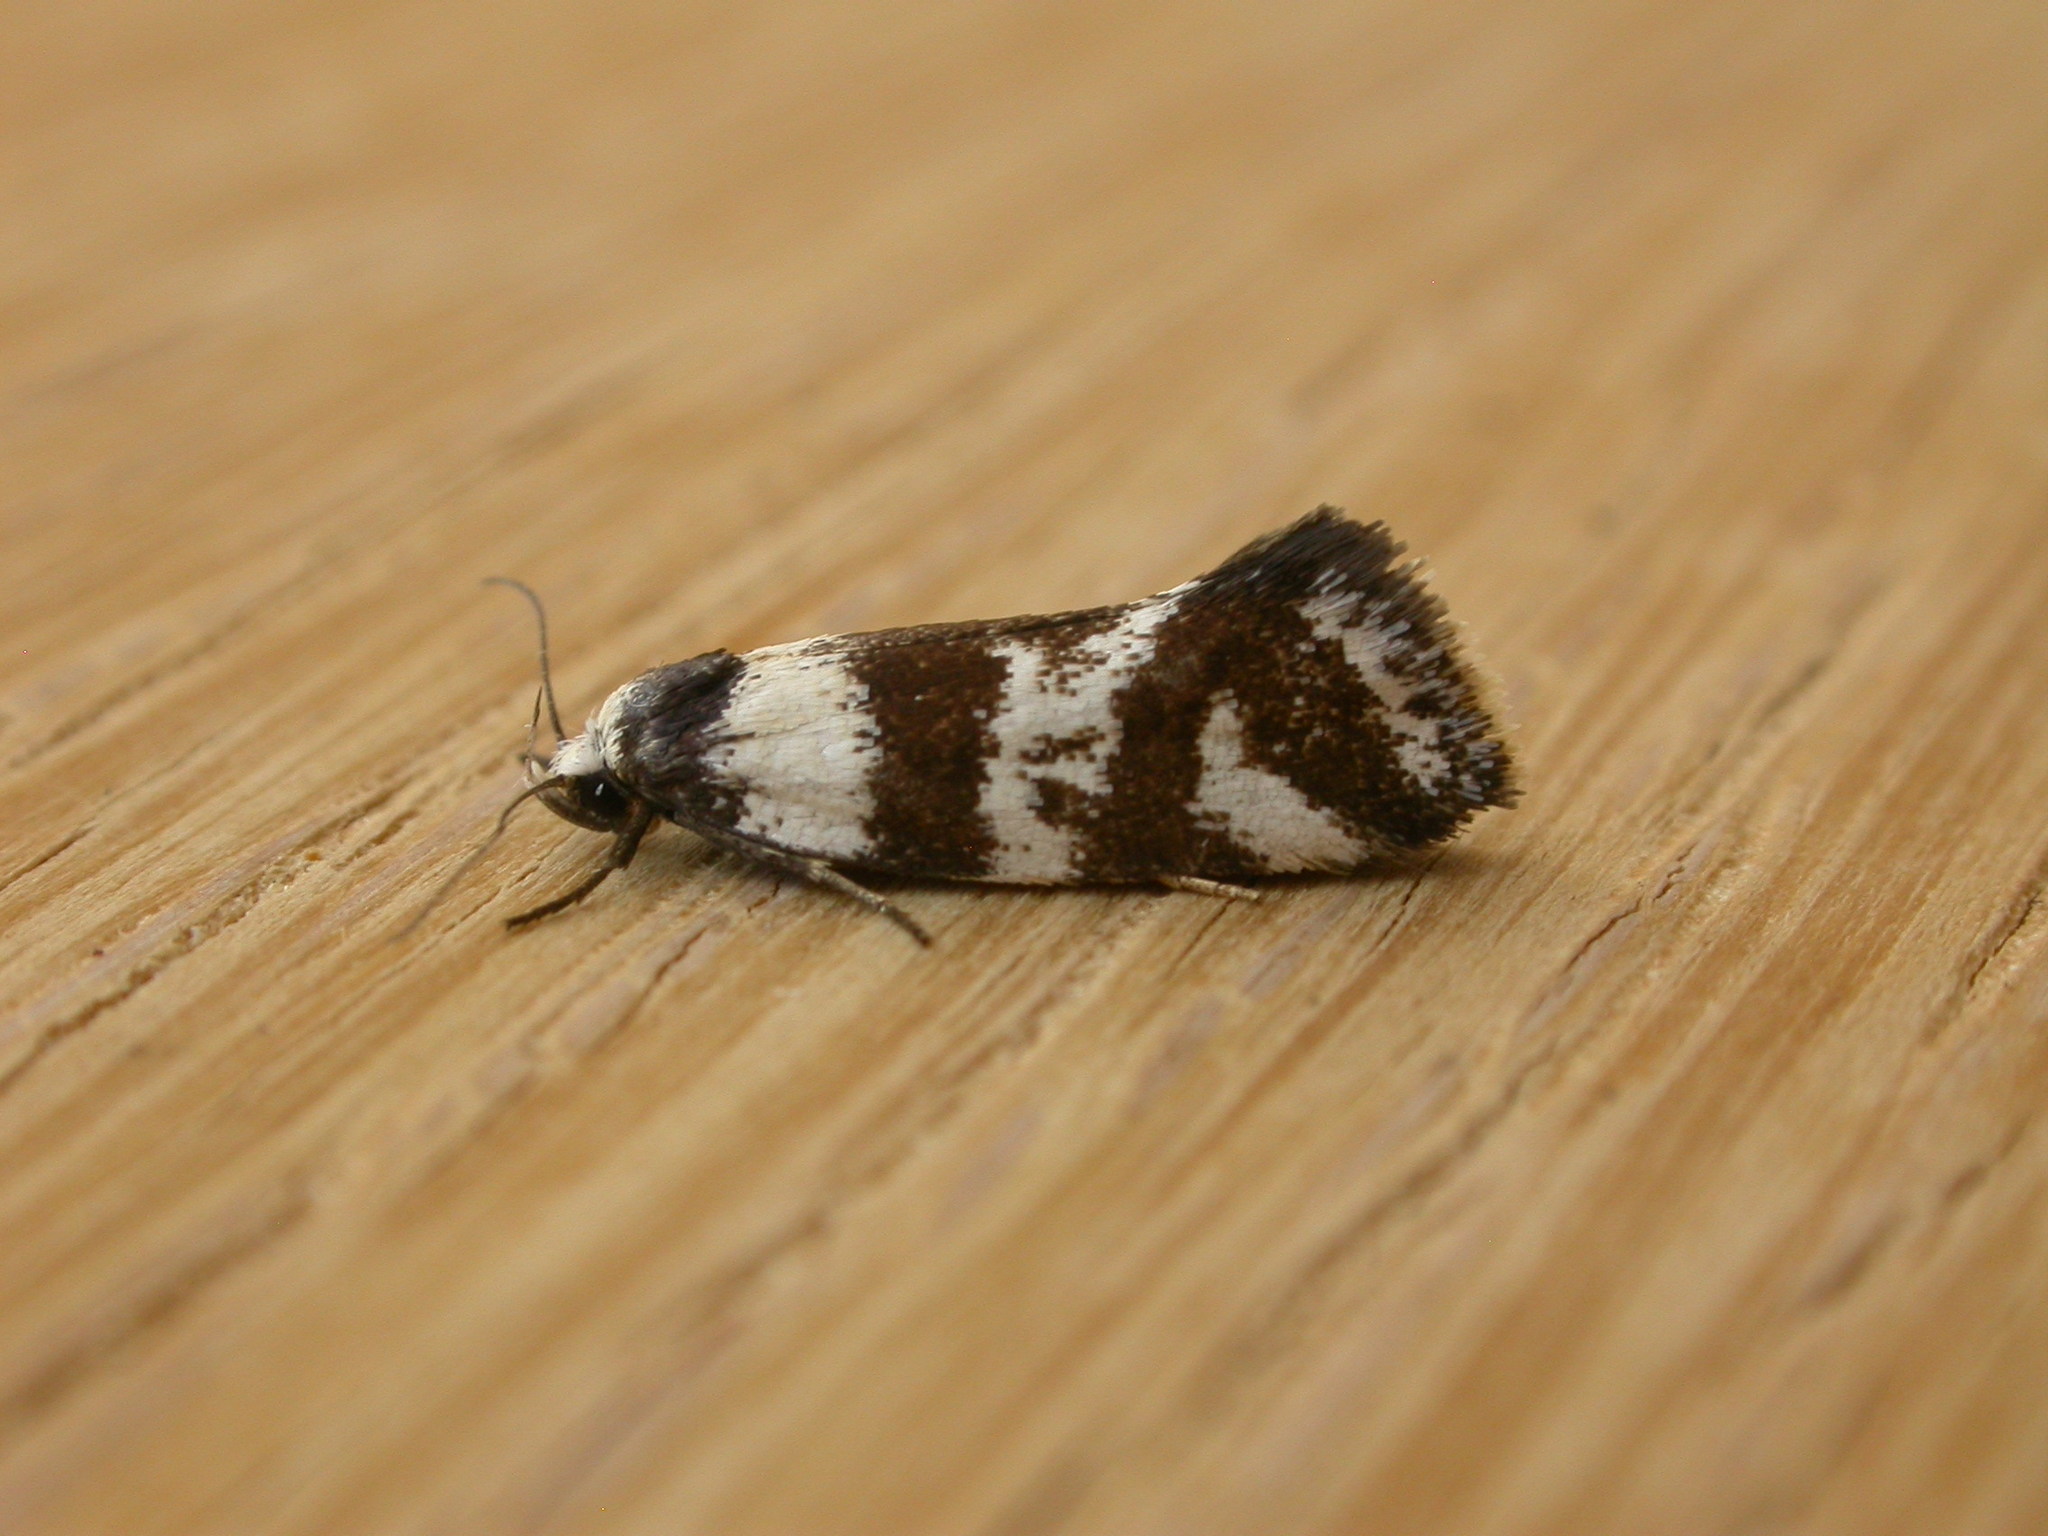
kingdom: Animalia
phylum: Arthropoda
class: Insecta
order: Lepidoptera
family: Oecophoridae
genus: Isomoralla
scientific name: Isomoralla eriscota
